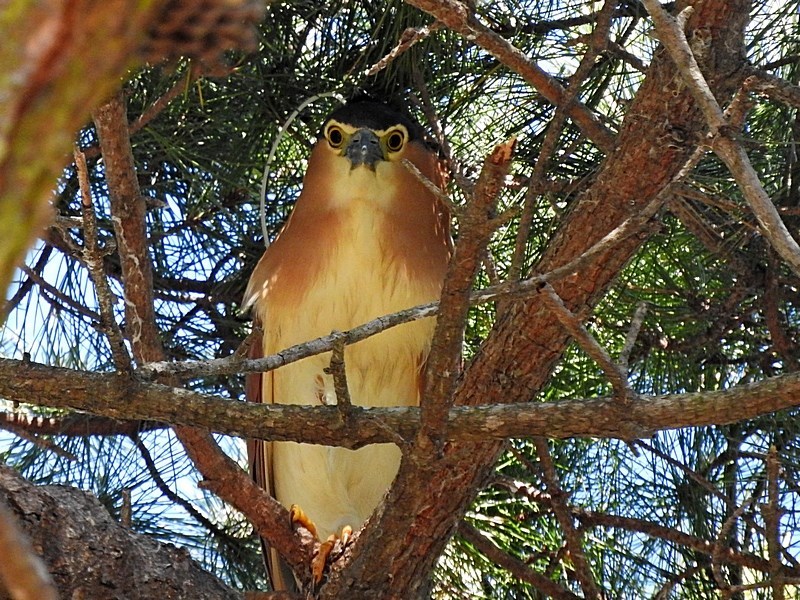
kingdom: Animalia
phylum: Chordata
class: Aves
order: Pelecaniformes
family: Ardeidae
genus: Nycticorax
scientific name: Nycticorax caledonicus
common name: Rufous night-heron
